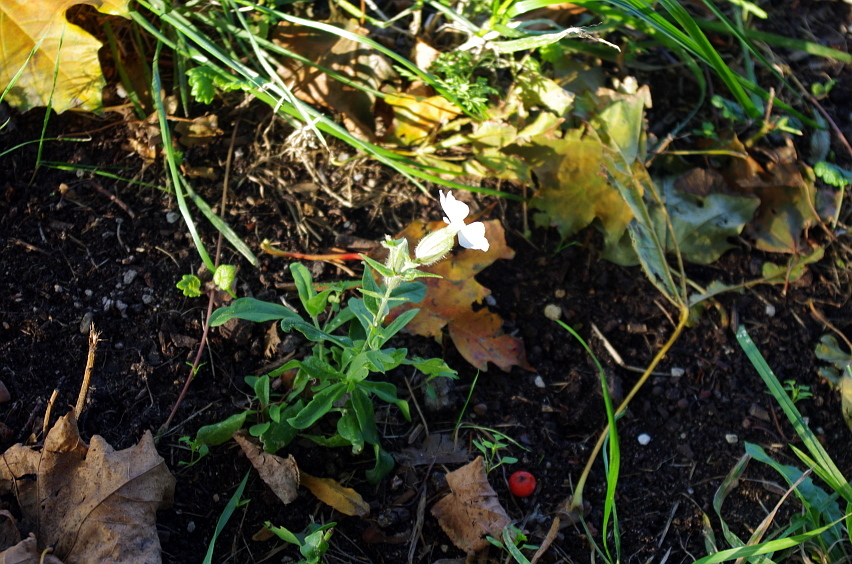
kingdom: Plantae
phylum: Tracheophyta
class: Magnoliopsida
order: Caryophyllales
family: Caryophyllaceae
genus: Silene
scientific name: Silene latifolia
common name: White campion
